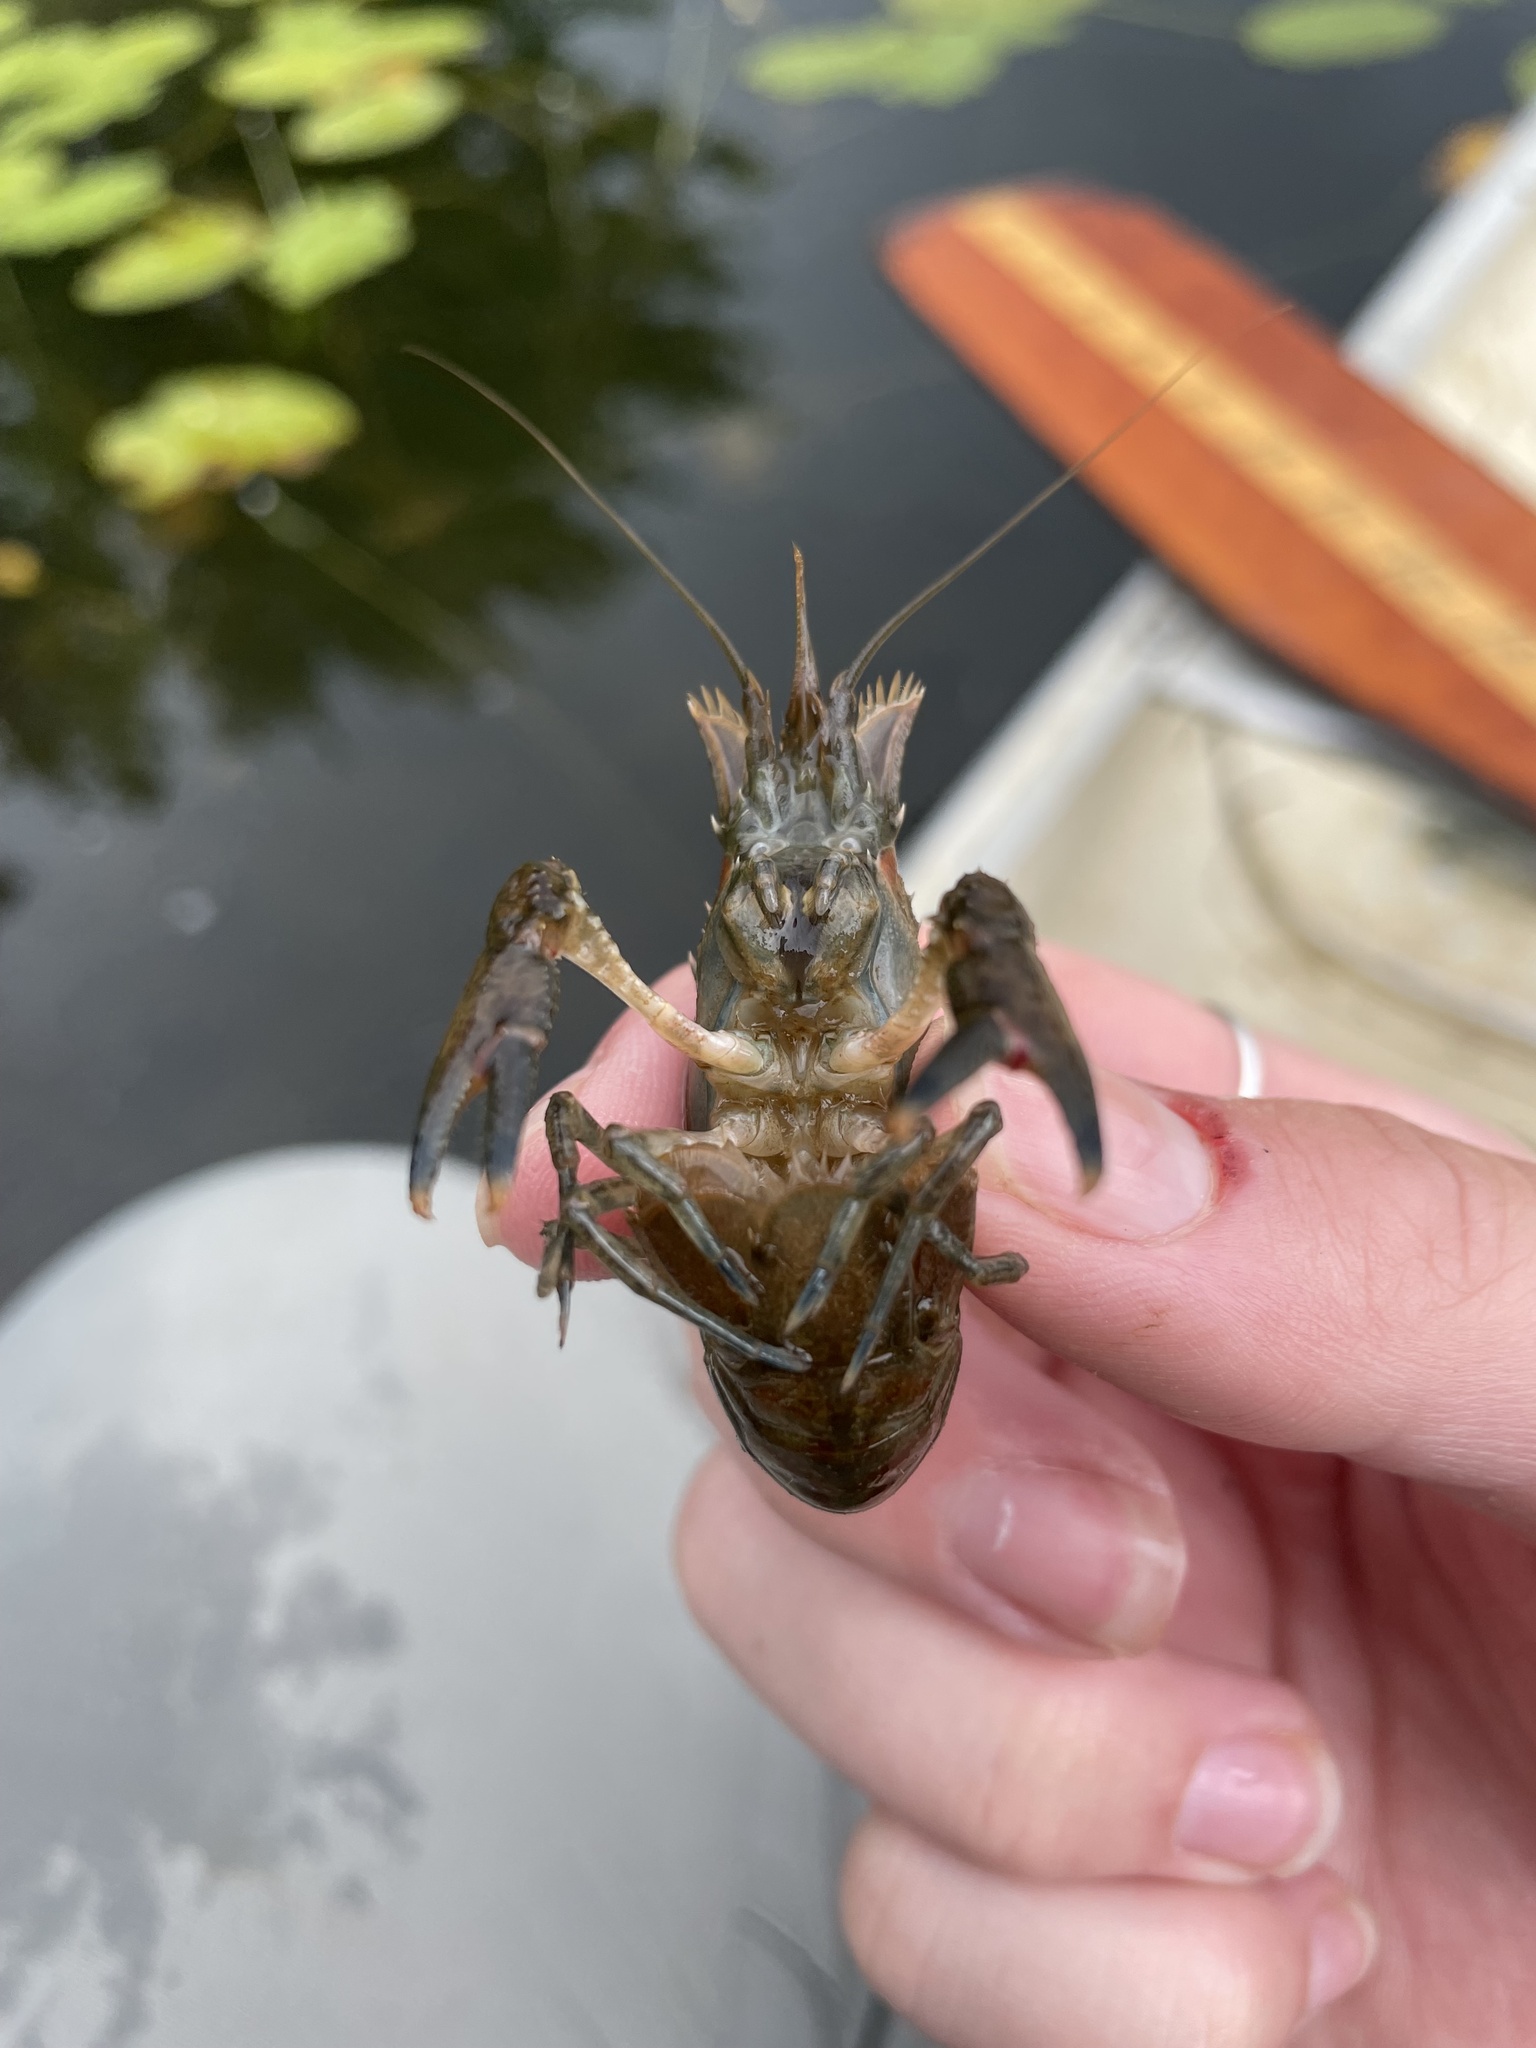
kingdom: Animalia
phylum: Arthropoda
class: Malacostraca
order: Decapoda
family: Cambaridae
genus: Faxonius
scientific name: Faxonius limosus
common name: American crayfish
